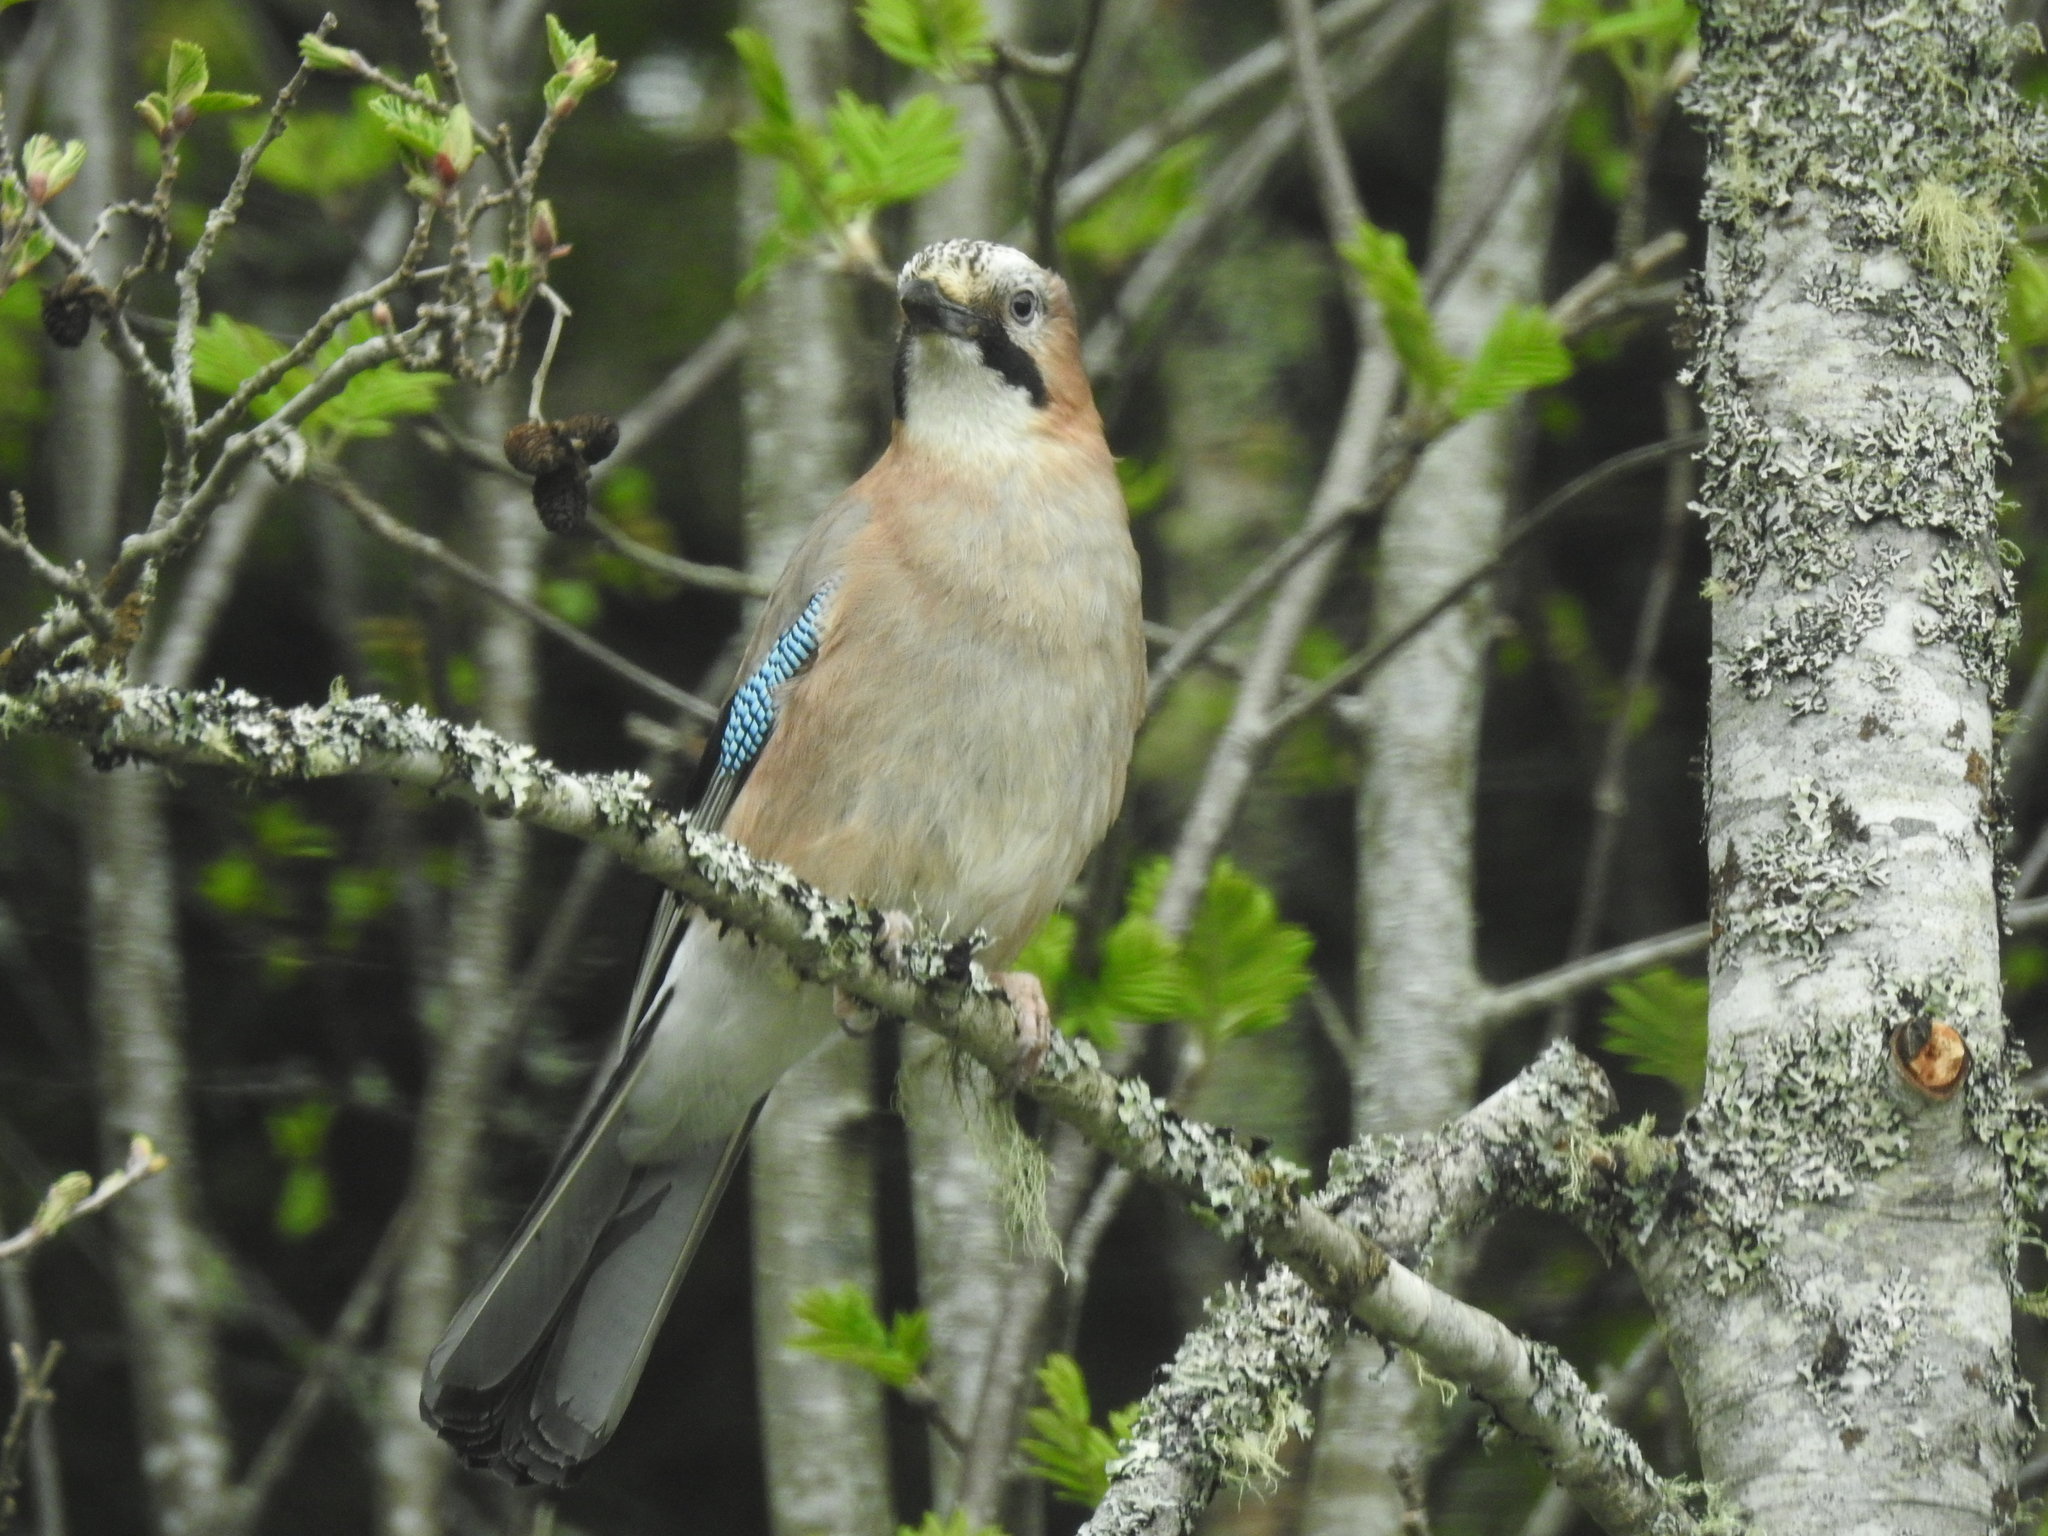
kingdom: Animalia
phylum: Chordata
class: Aves
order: Passeriformes
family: Corvidae
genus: Garrulus
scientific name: Garrulus glandarius
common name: Eurasian jay
